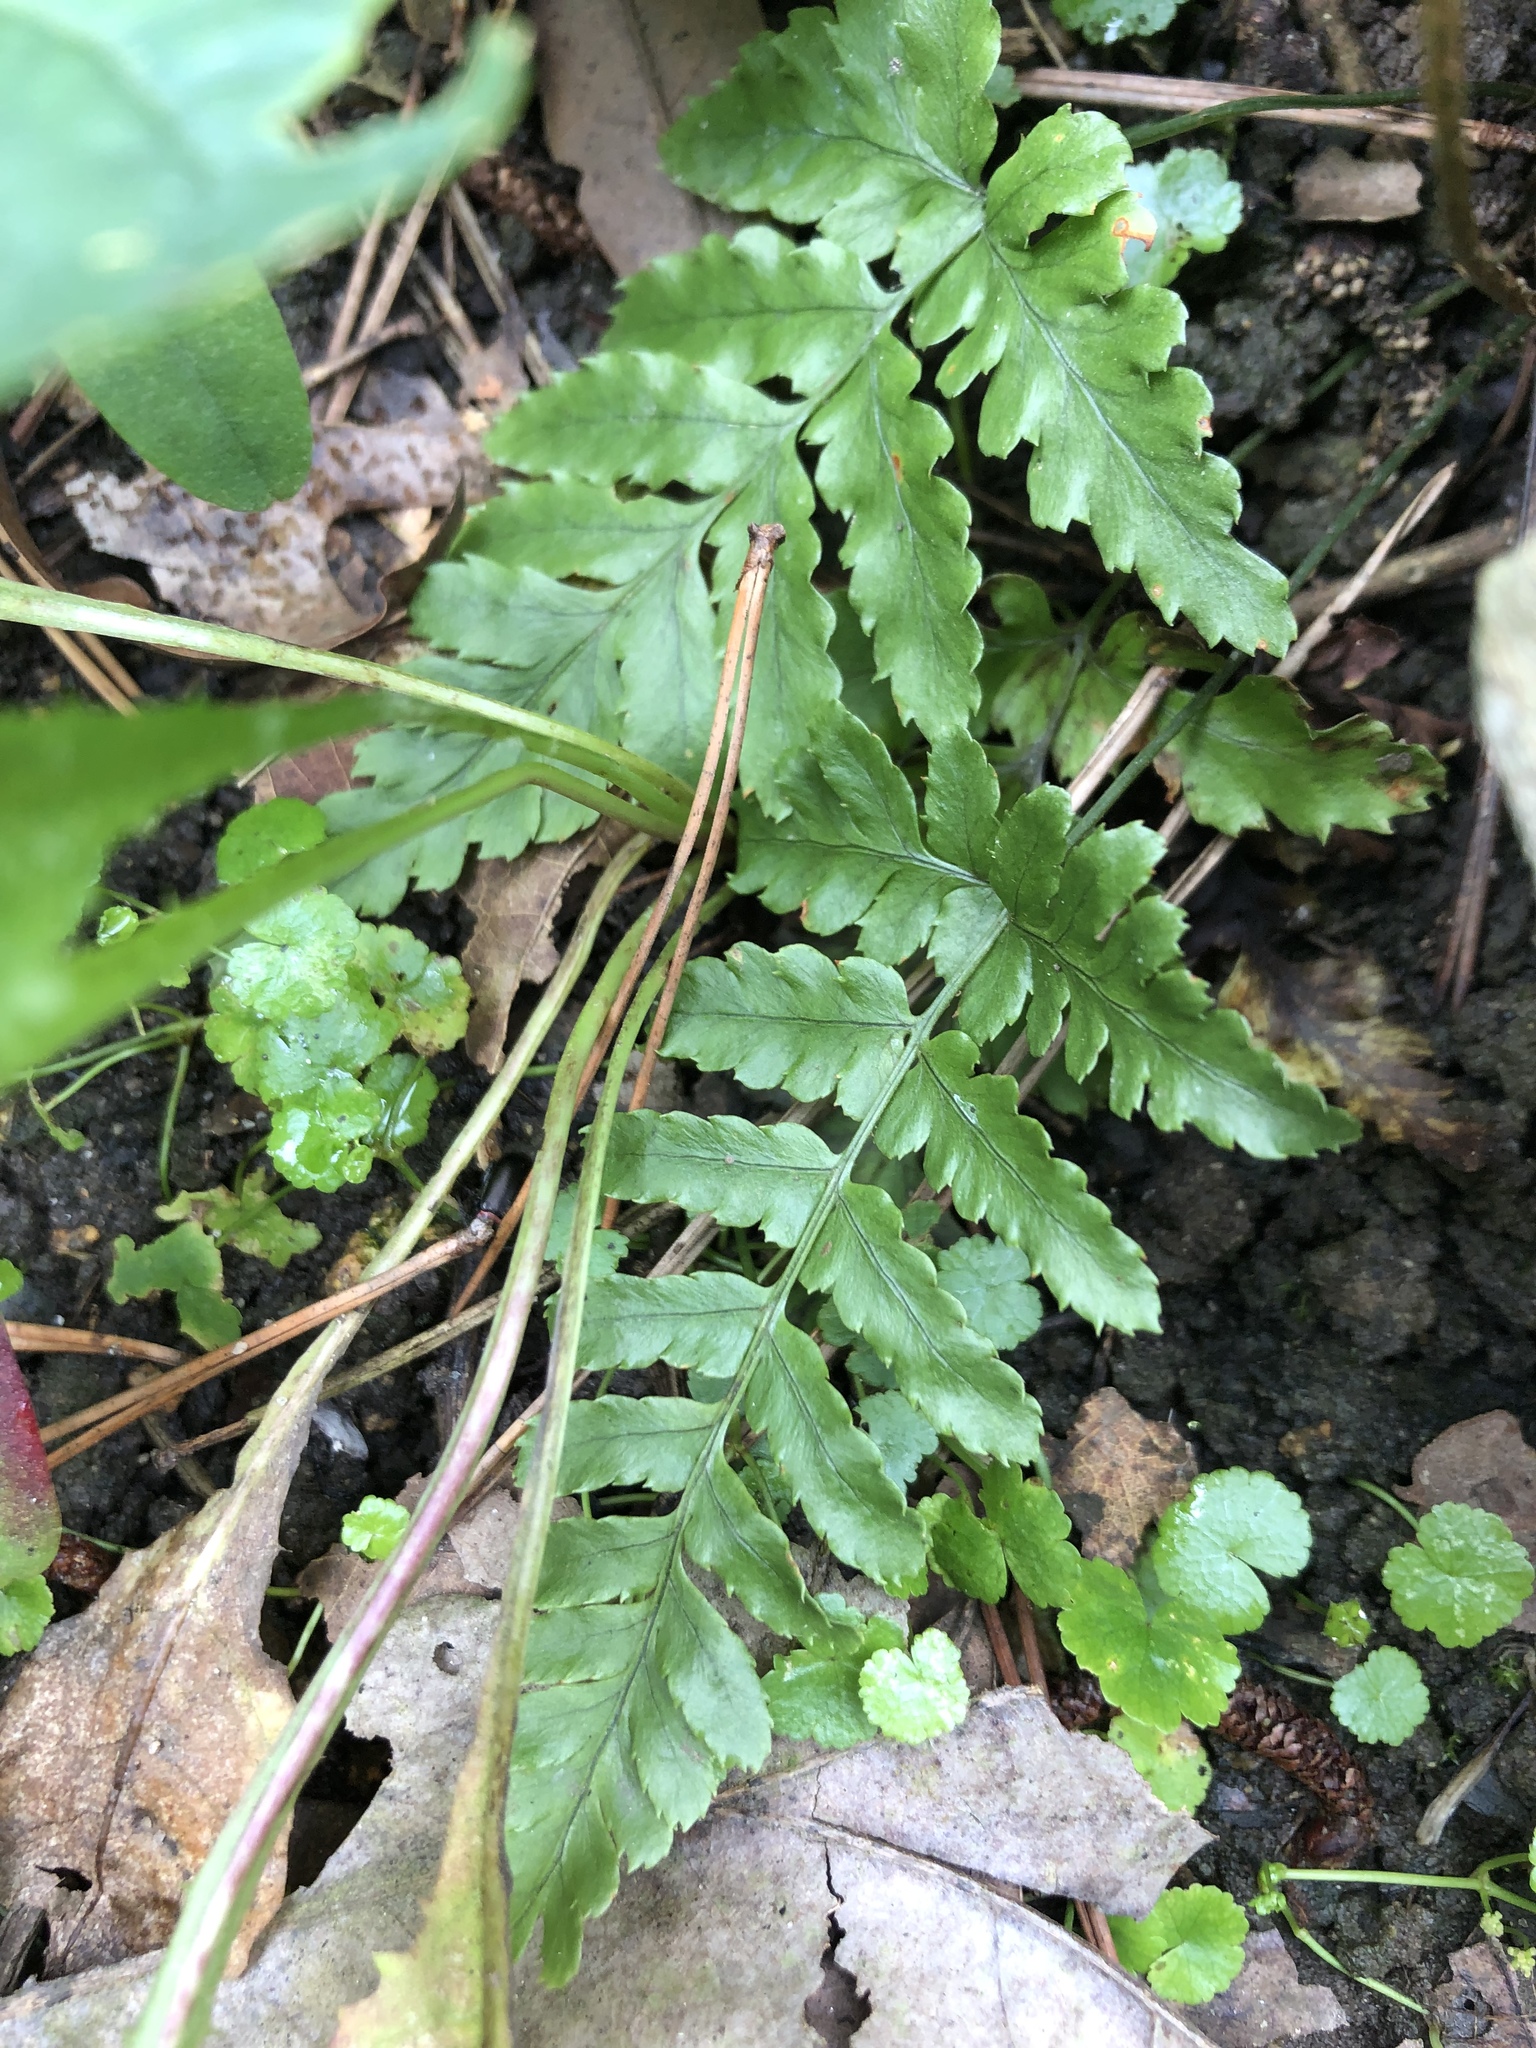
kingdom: Plantae
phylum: Tracheophyta
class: Polypodiopsida
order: Polypodiales
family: Dryopteridaceae
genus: Dryopteris
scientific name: Dryopteris erythrosora
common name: Autumn fern
